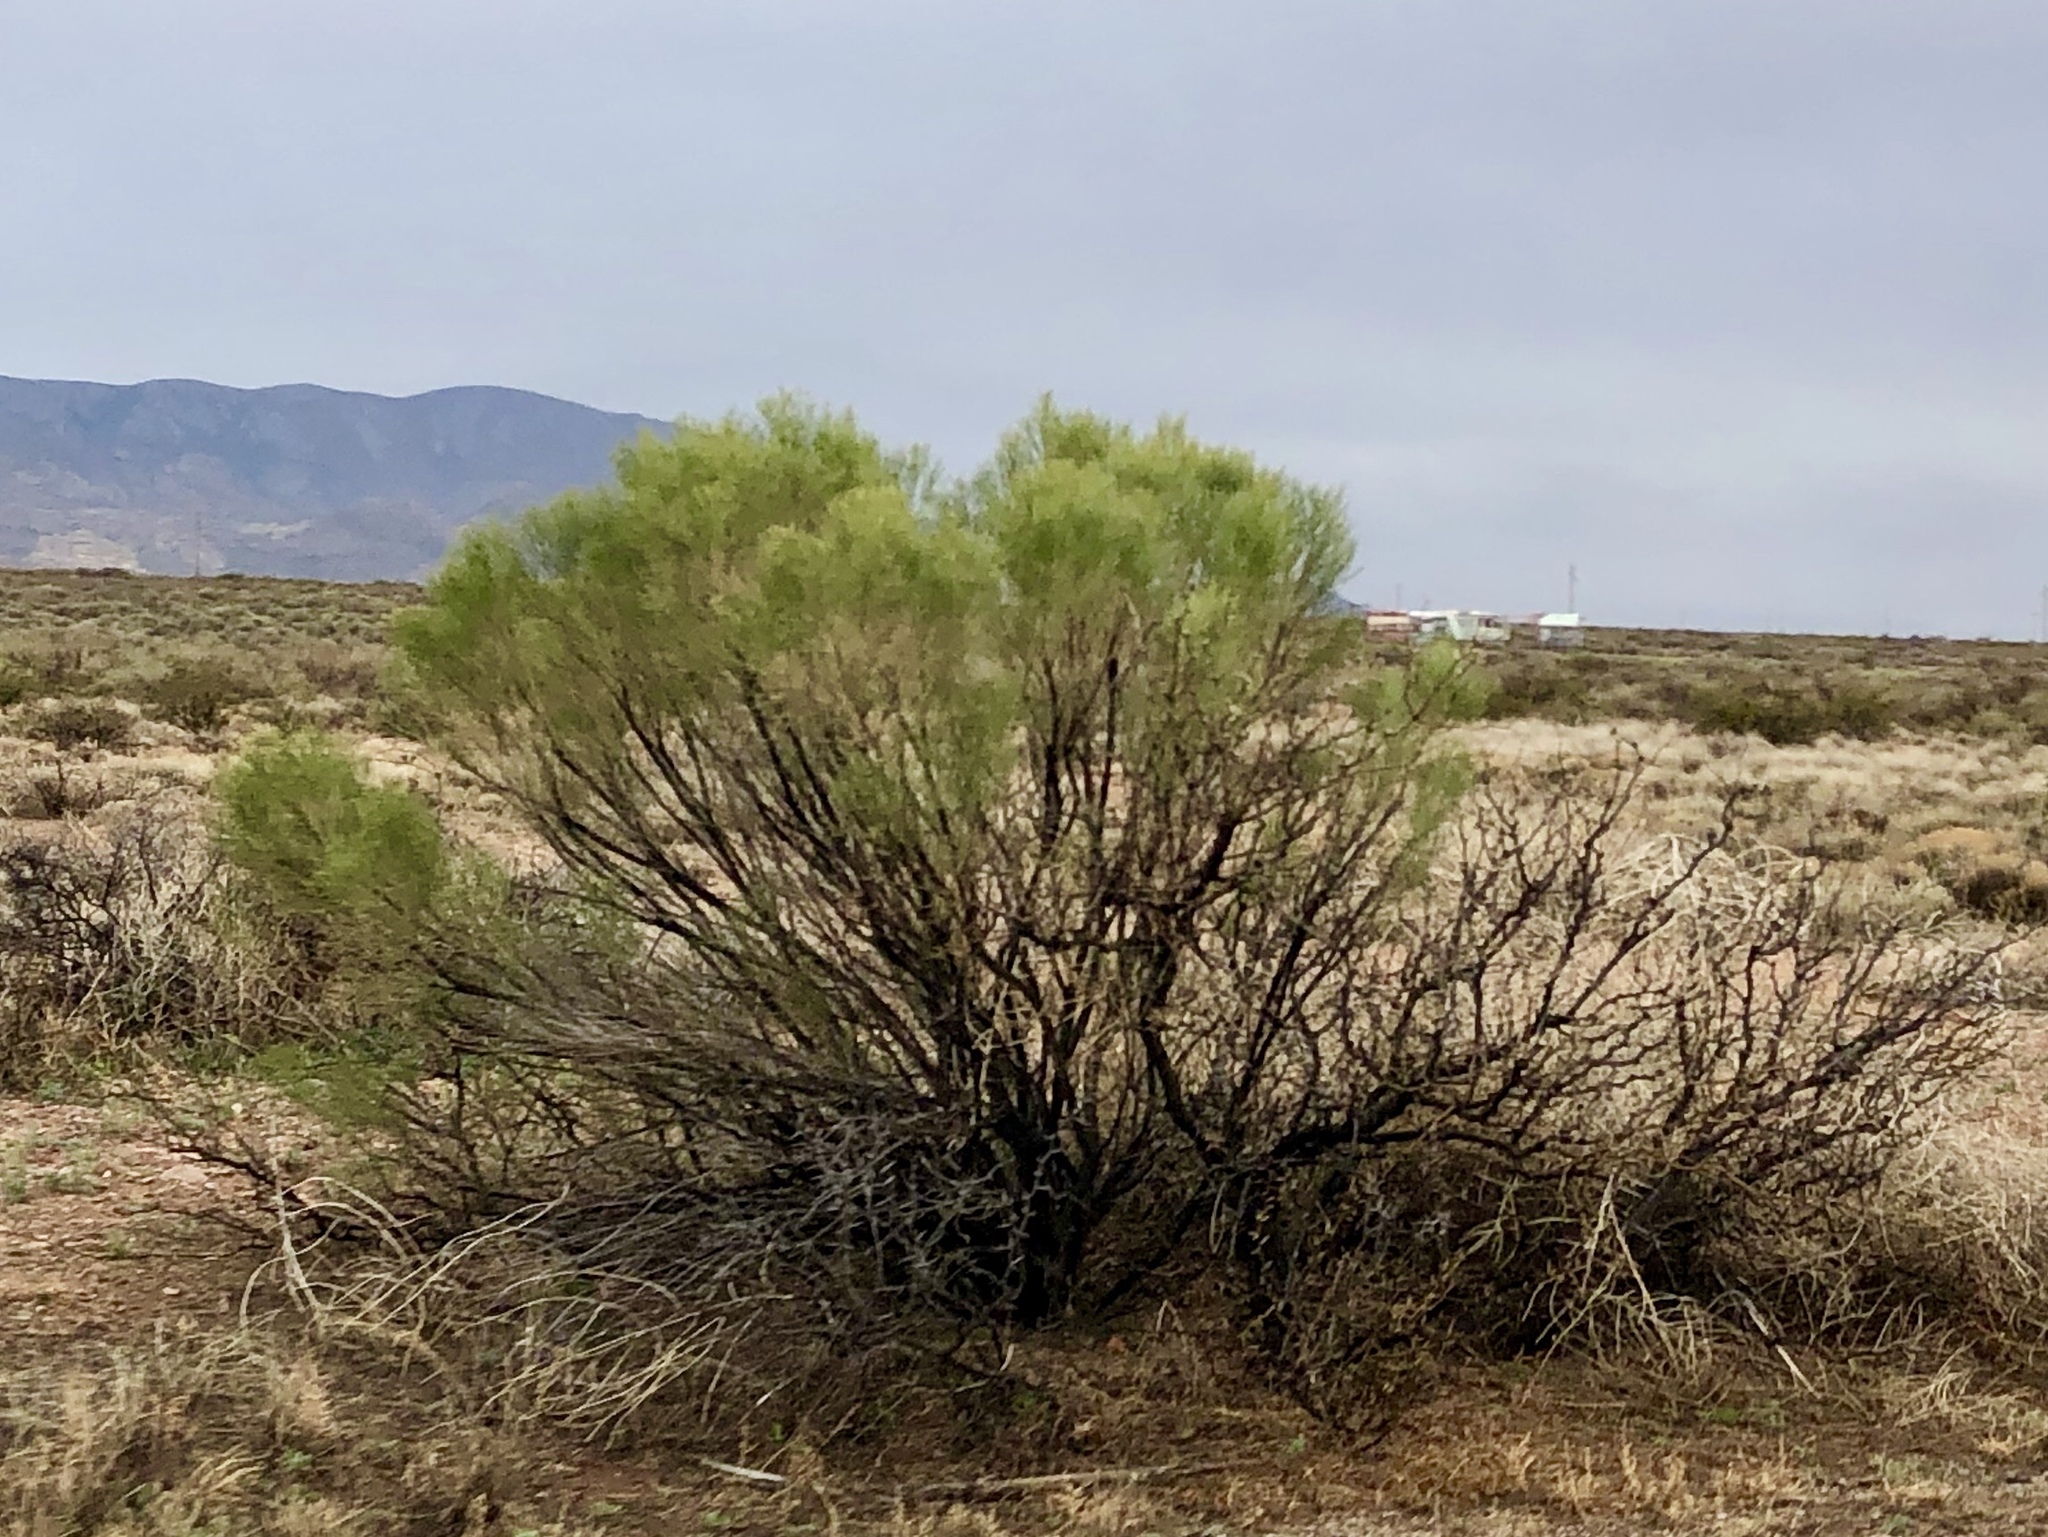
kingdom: Plantae
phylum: Tracheophyta
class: Magnoliopsida
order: Asterales
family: Asteraceae
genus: Baccharis
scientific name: Baccharis sarothroides
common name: Desert-broom
